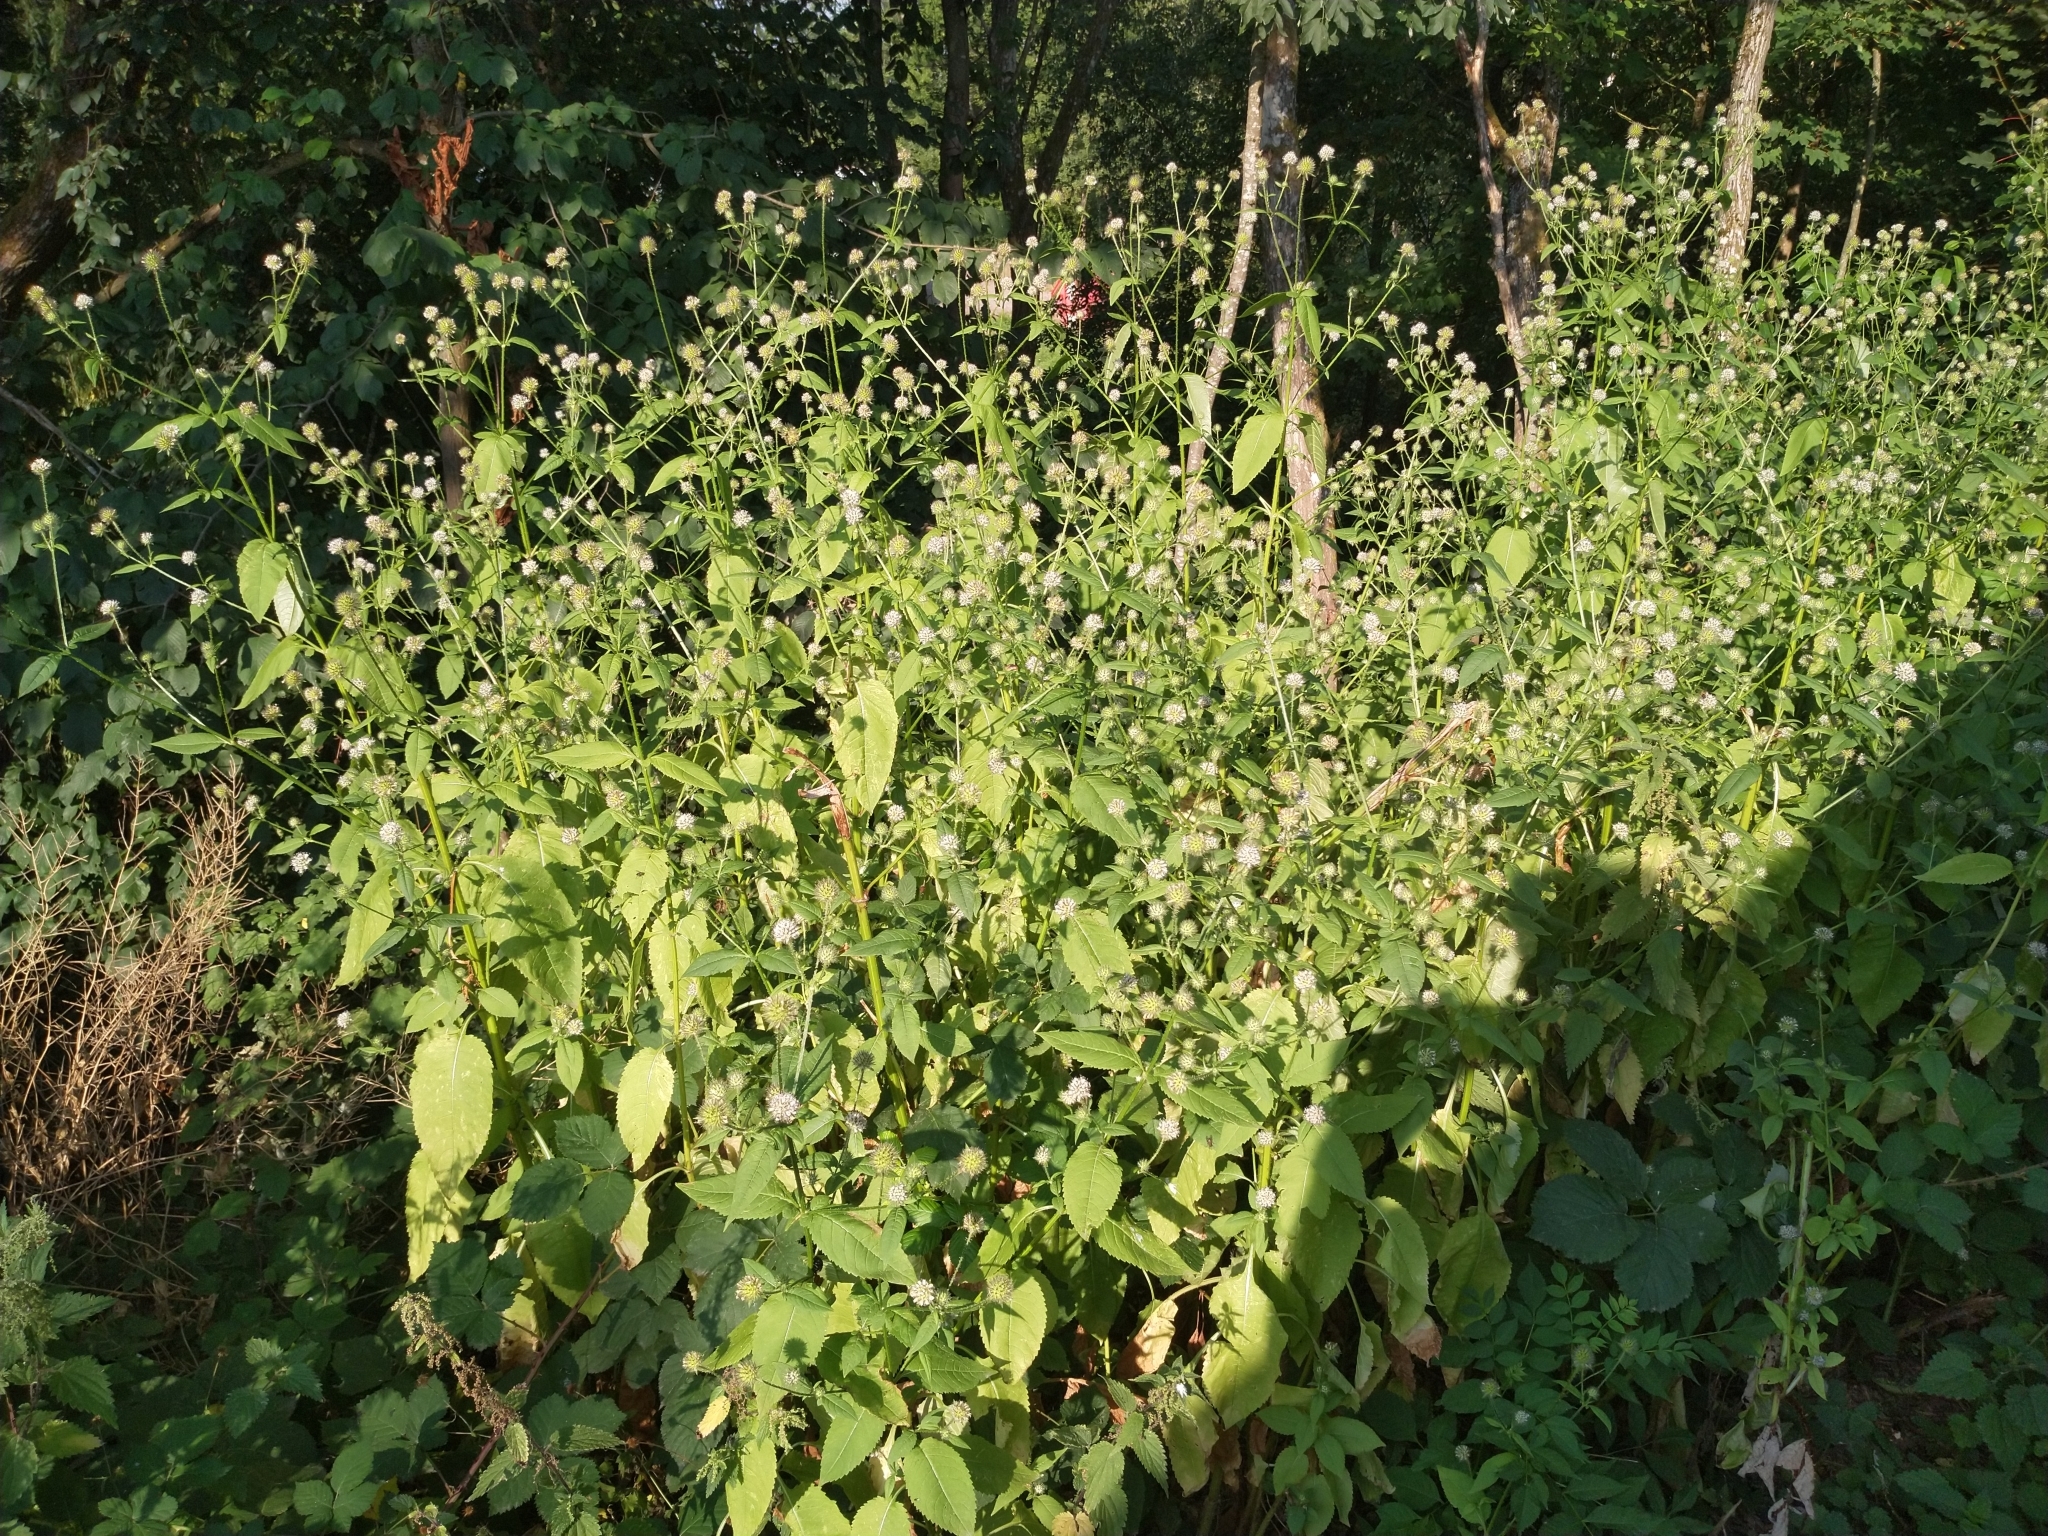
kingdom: Plantae
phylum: Tracheophyta
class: Magnoliopsida
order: Dipsacales
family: Caprifoliaceae
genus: Dipsacus
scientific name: Dipsacus pilosus
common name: Small teasel
